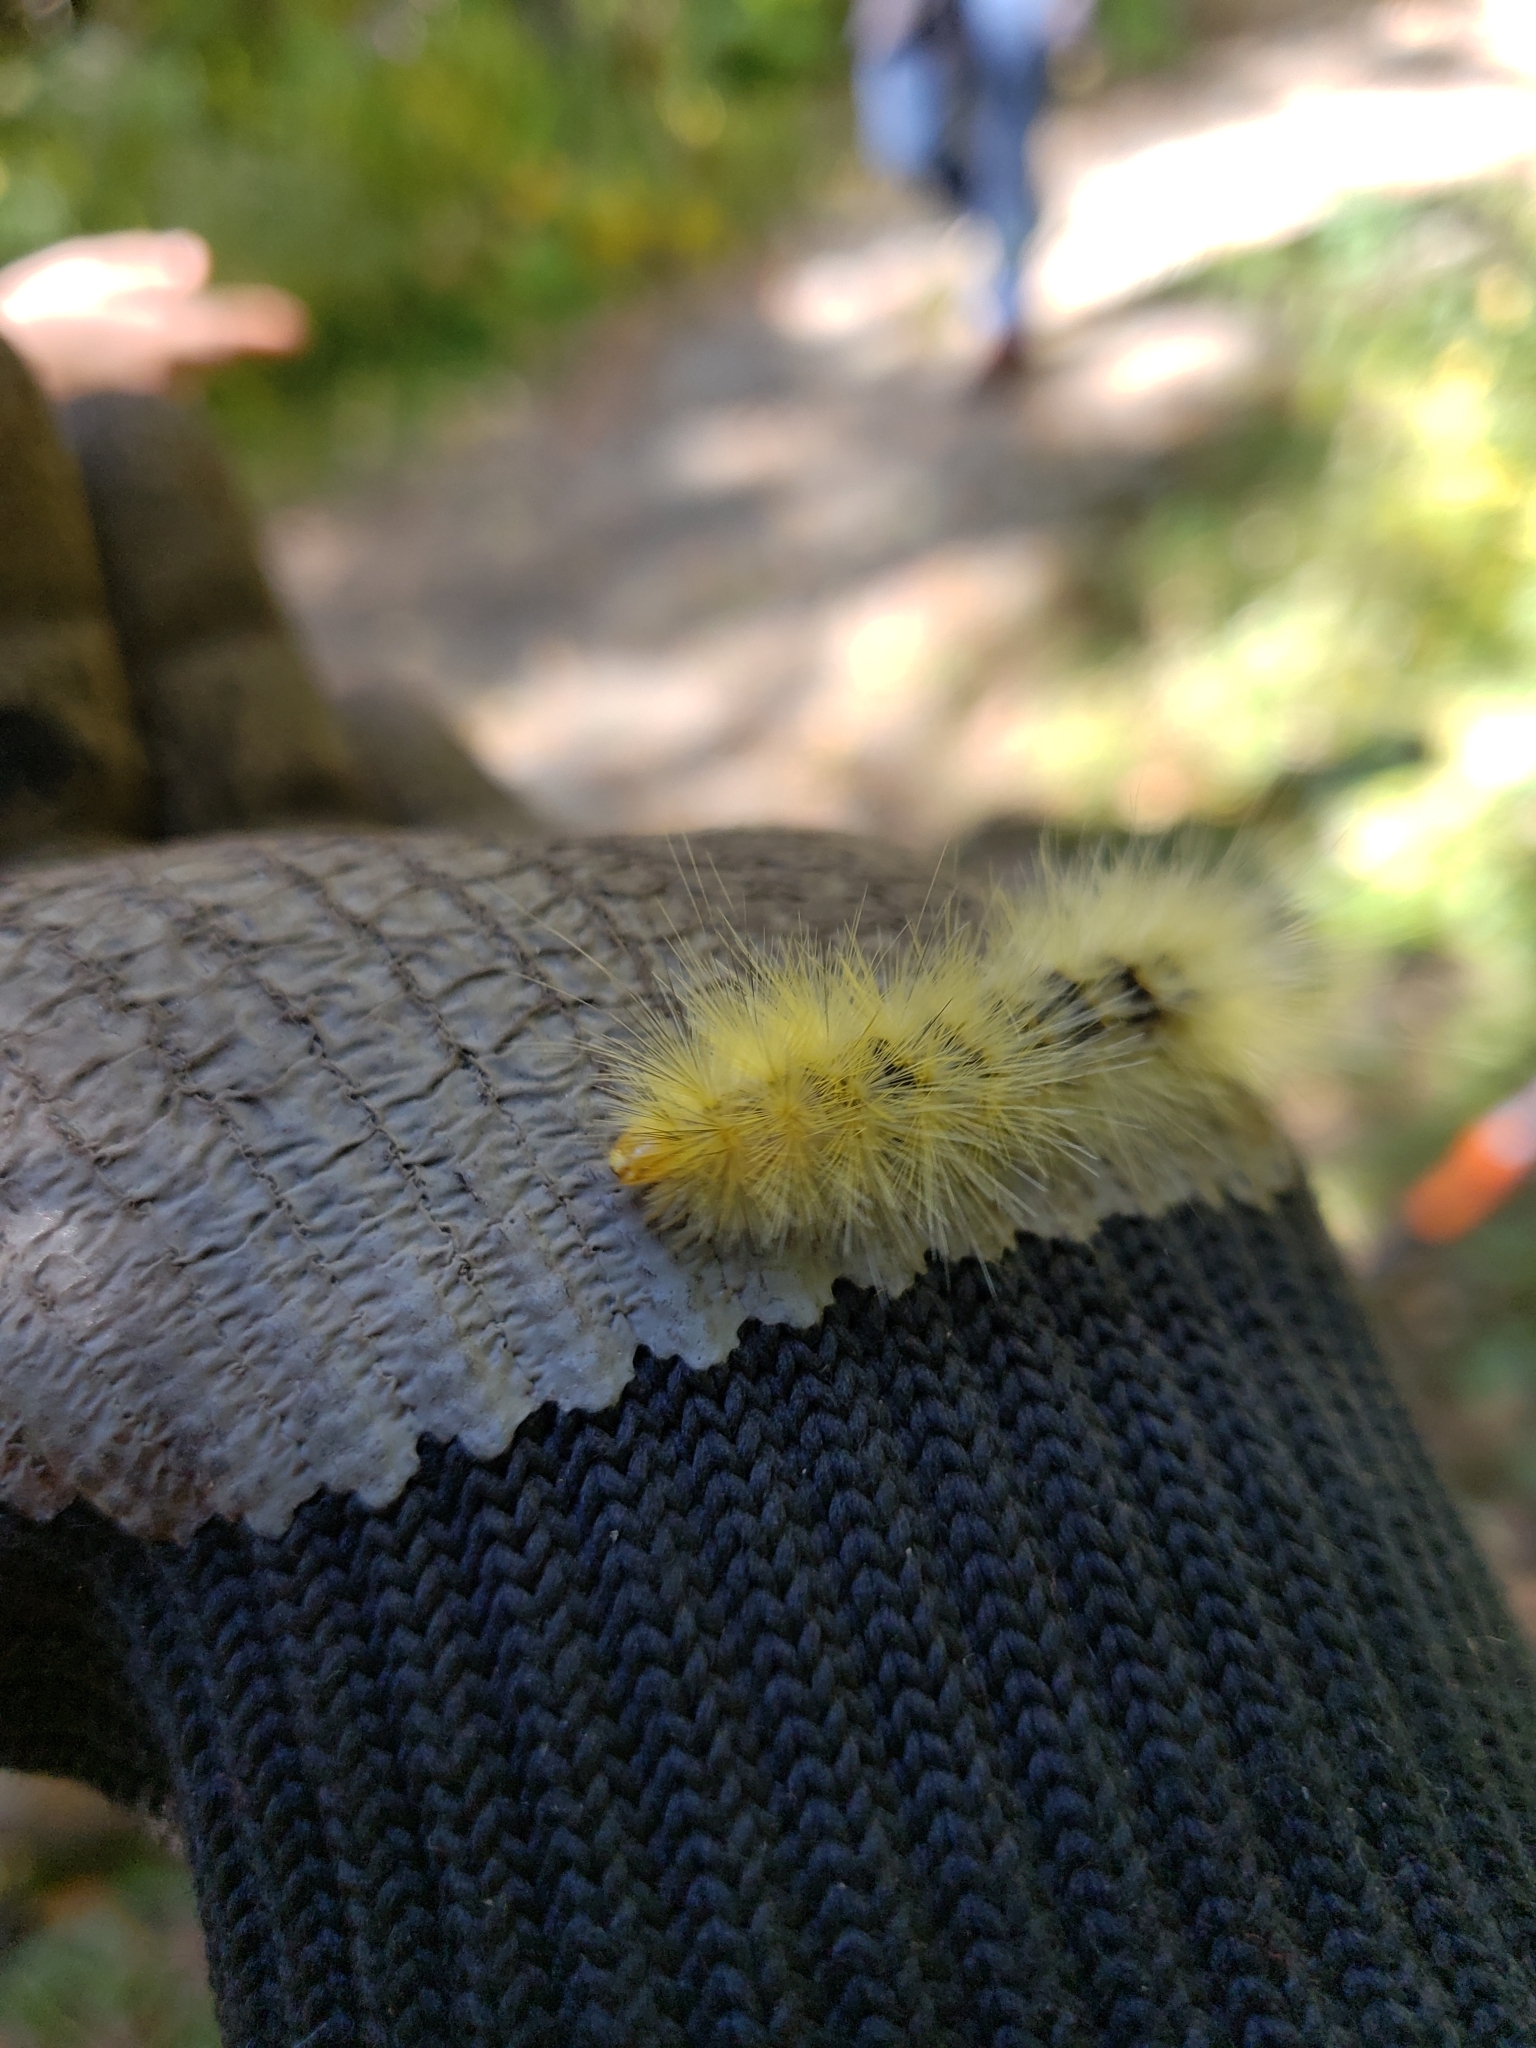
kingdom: Animalia
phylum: Arthropoda
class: Insecta
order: Lepidoptera
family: Erebidae
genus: Spilosoma
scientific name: Spilosoma virginica
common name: Virginia tiger moth
